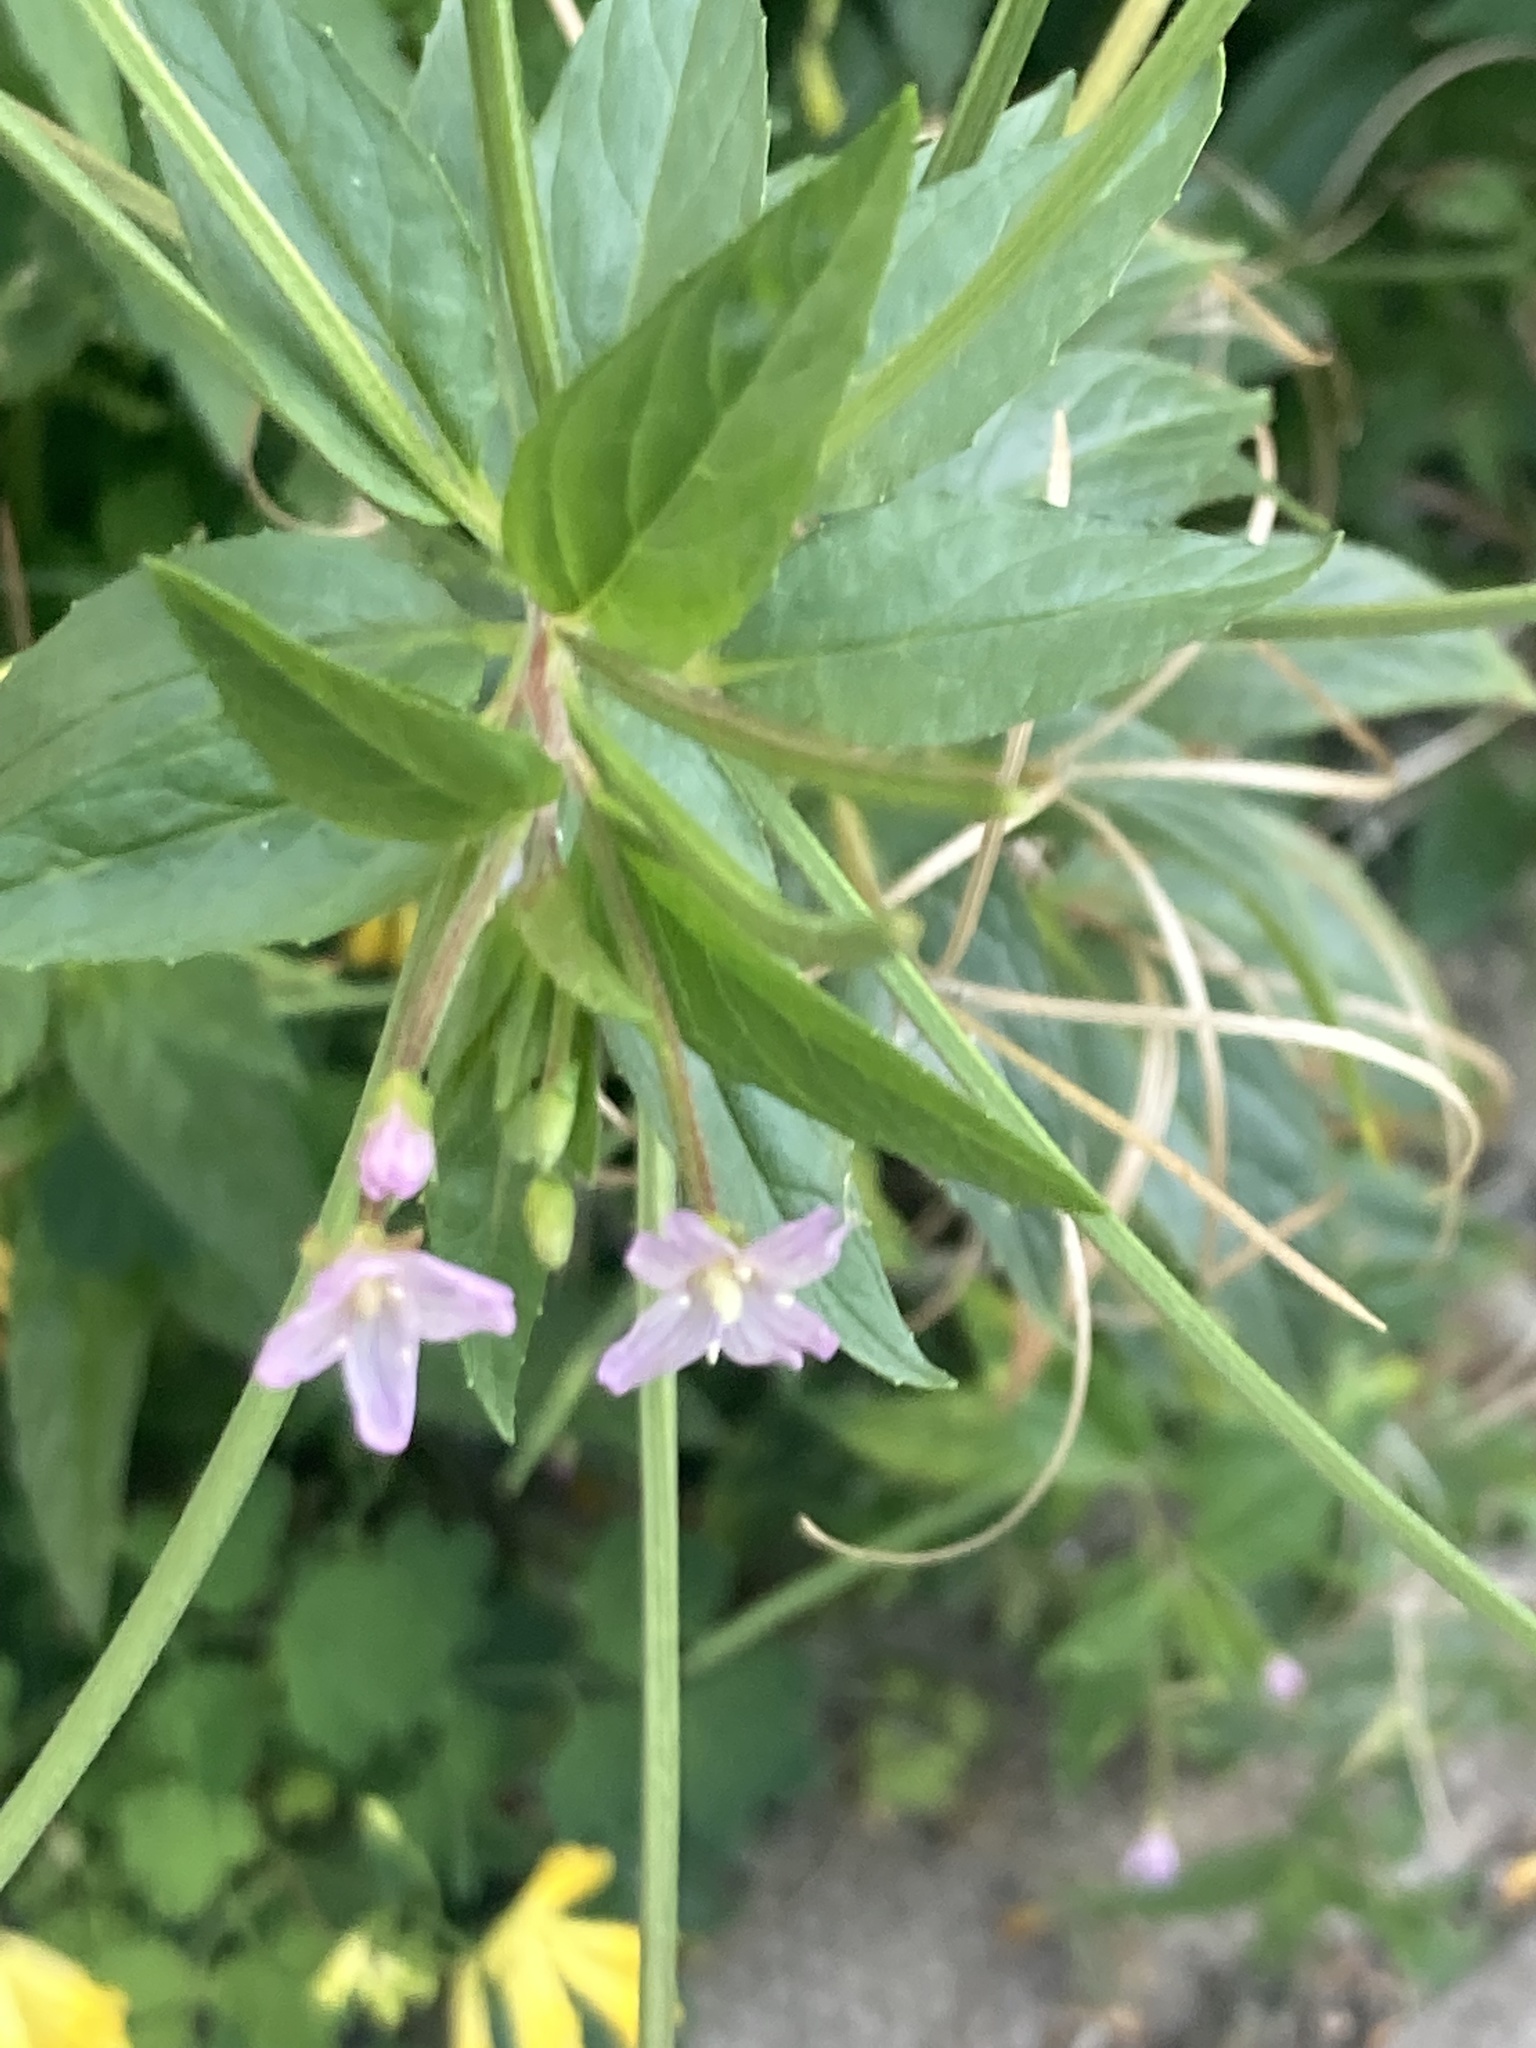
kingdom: Plantae
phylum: Tracheophyta
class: Magnoliopsida
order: Myrtales
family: Onagraceae
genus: Epilobium
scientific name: Epilobium ciliatum
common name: American willowherb
